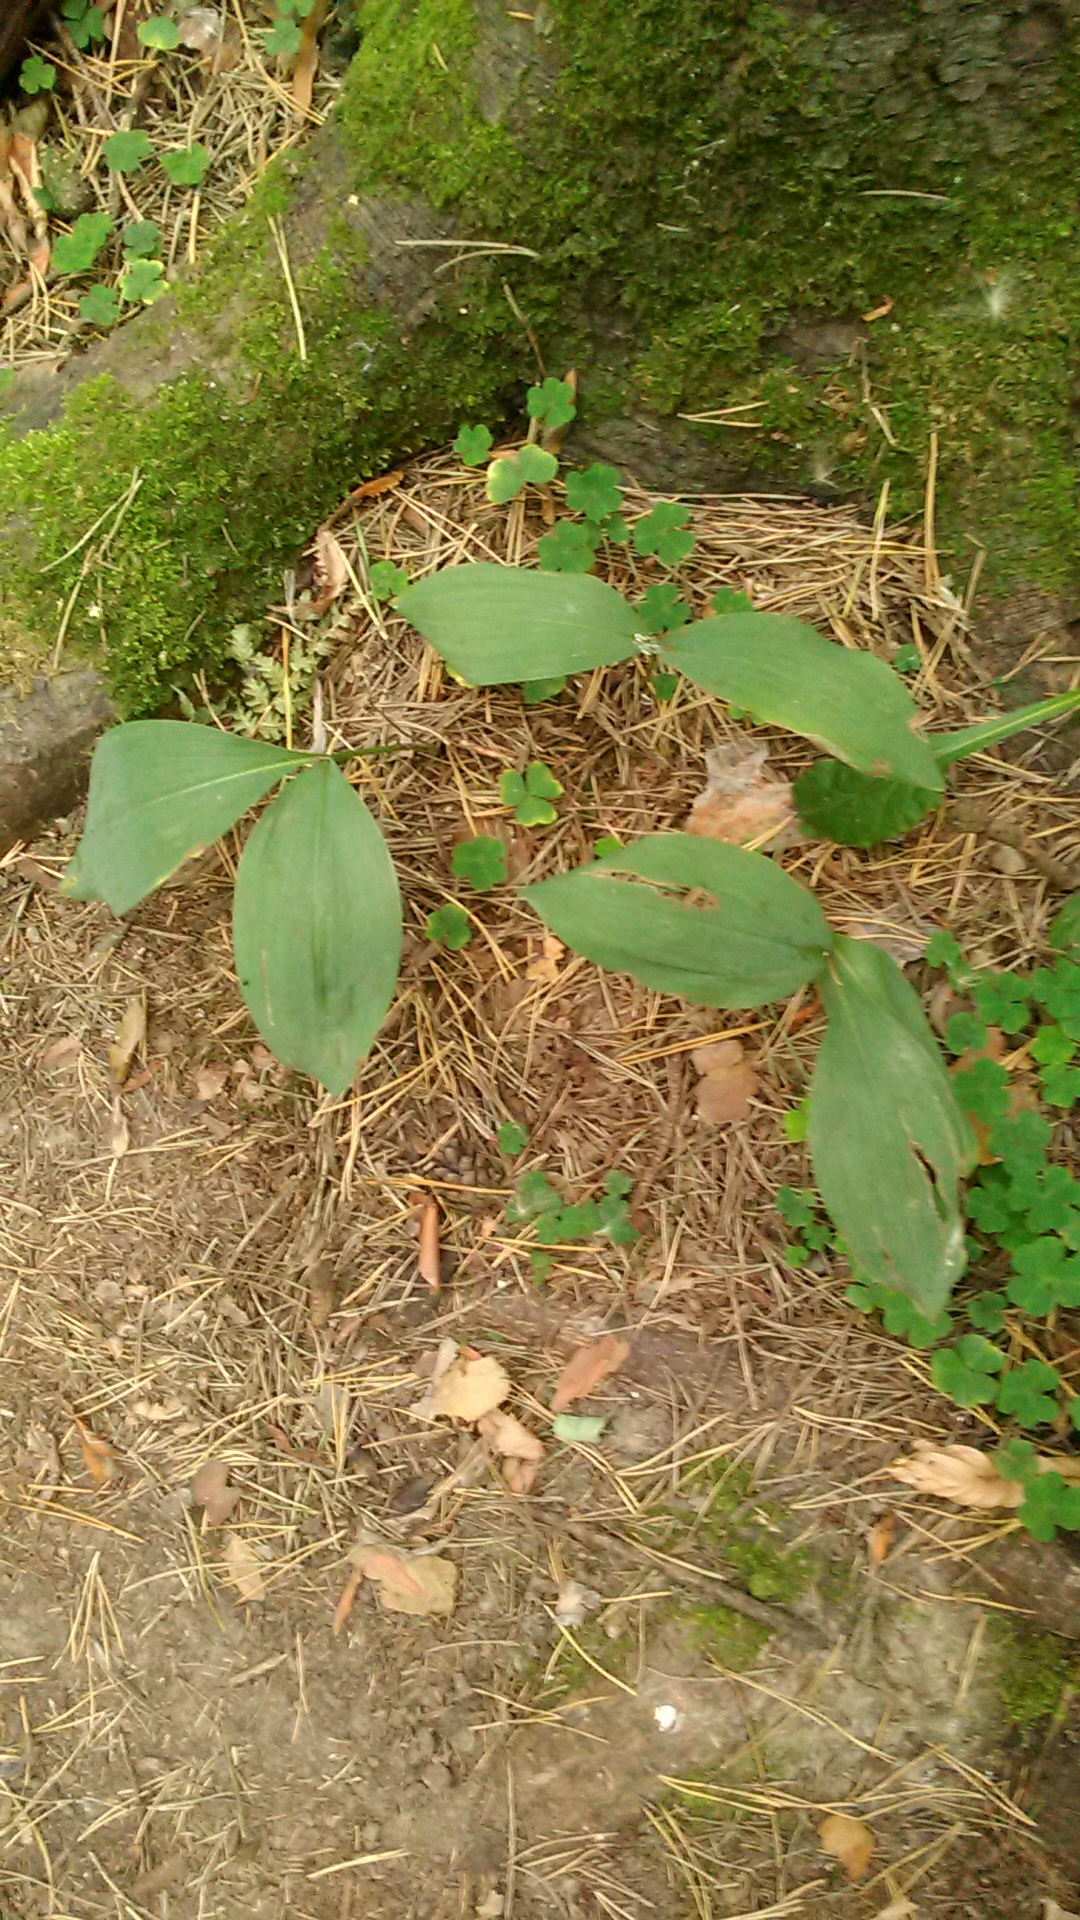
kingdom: Plantae
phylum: Tracheophyta
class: Liliopsida
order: Asparagales
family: Asparagaceae
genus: Convallaria
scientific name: Convallaria majalis
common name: Lily-of-the-valley
